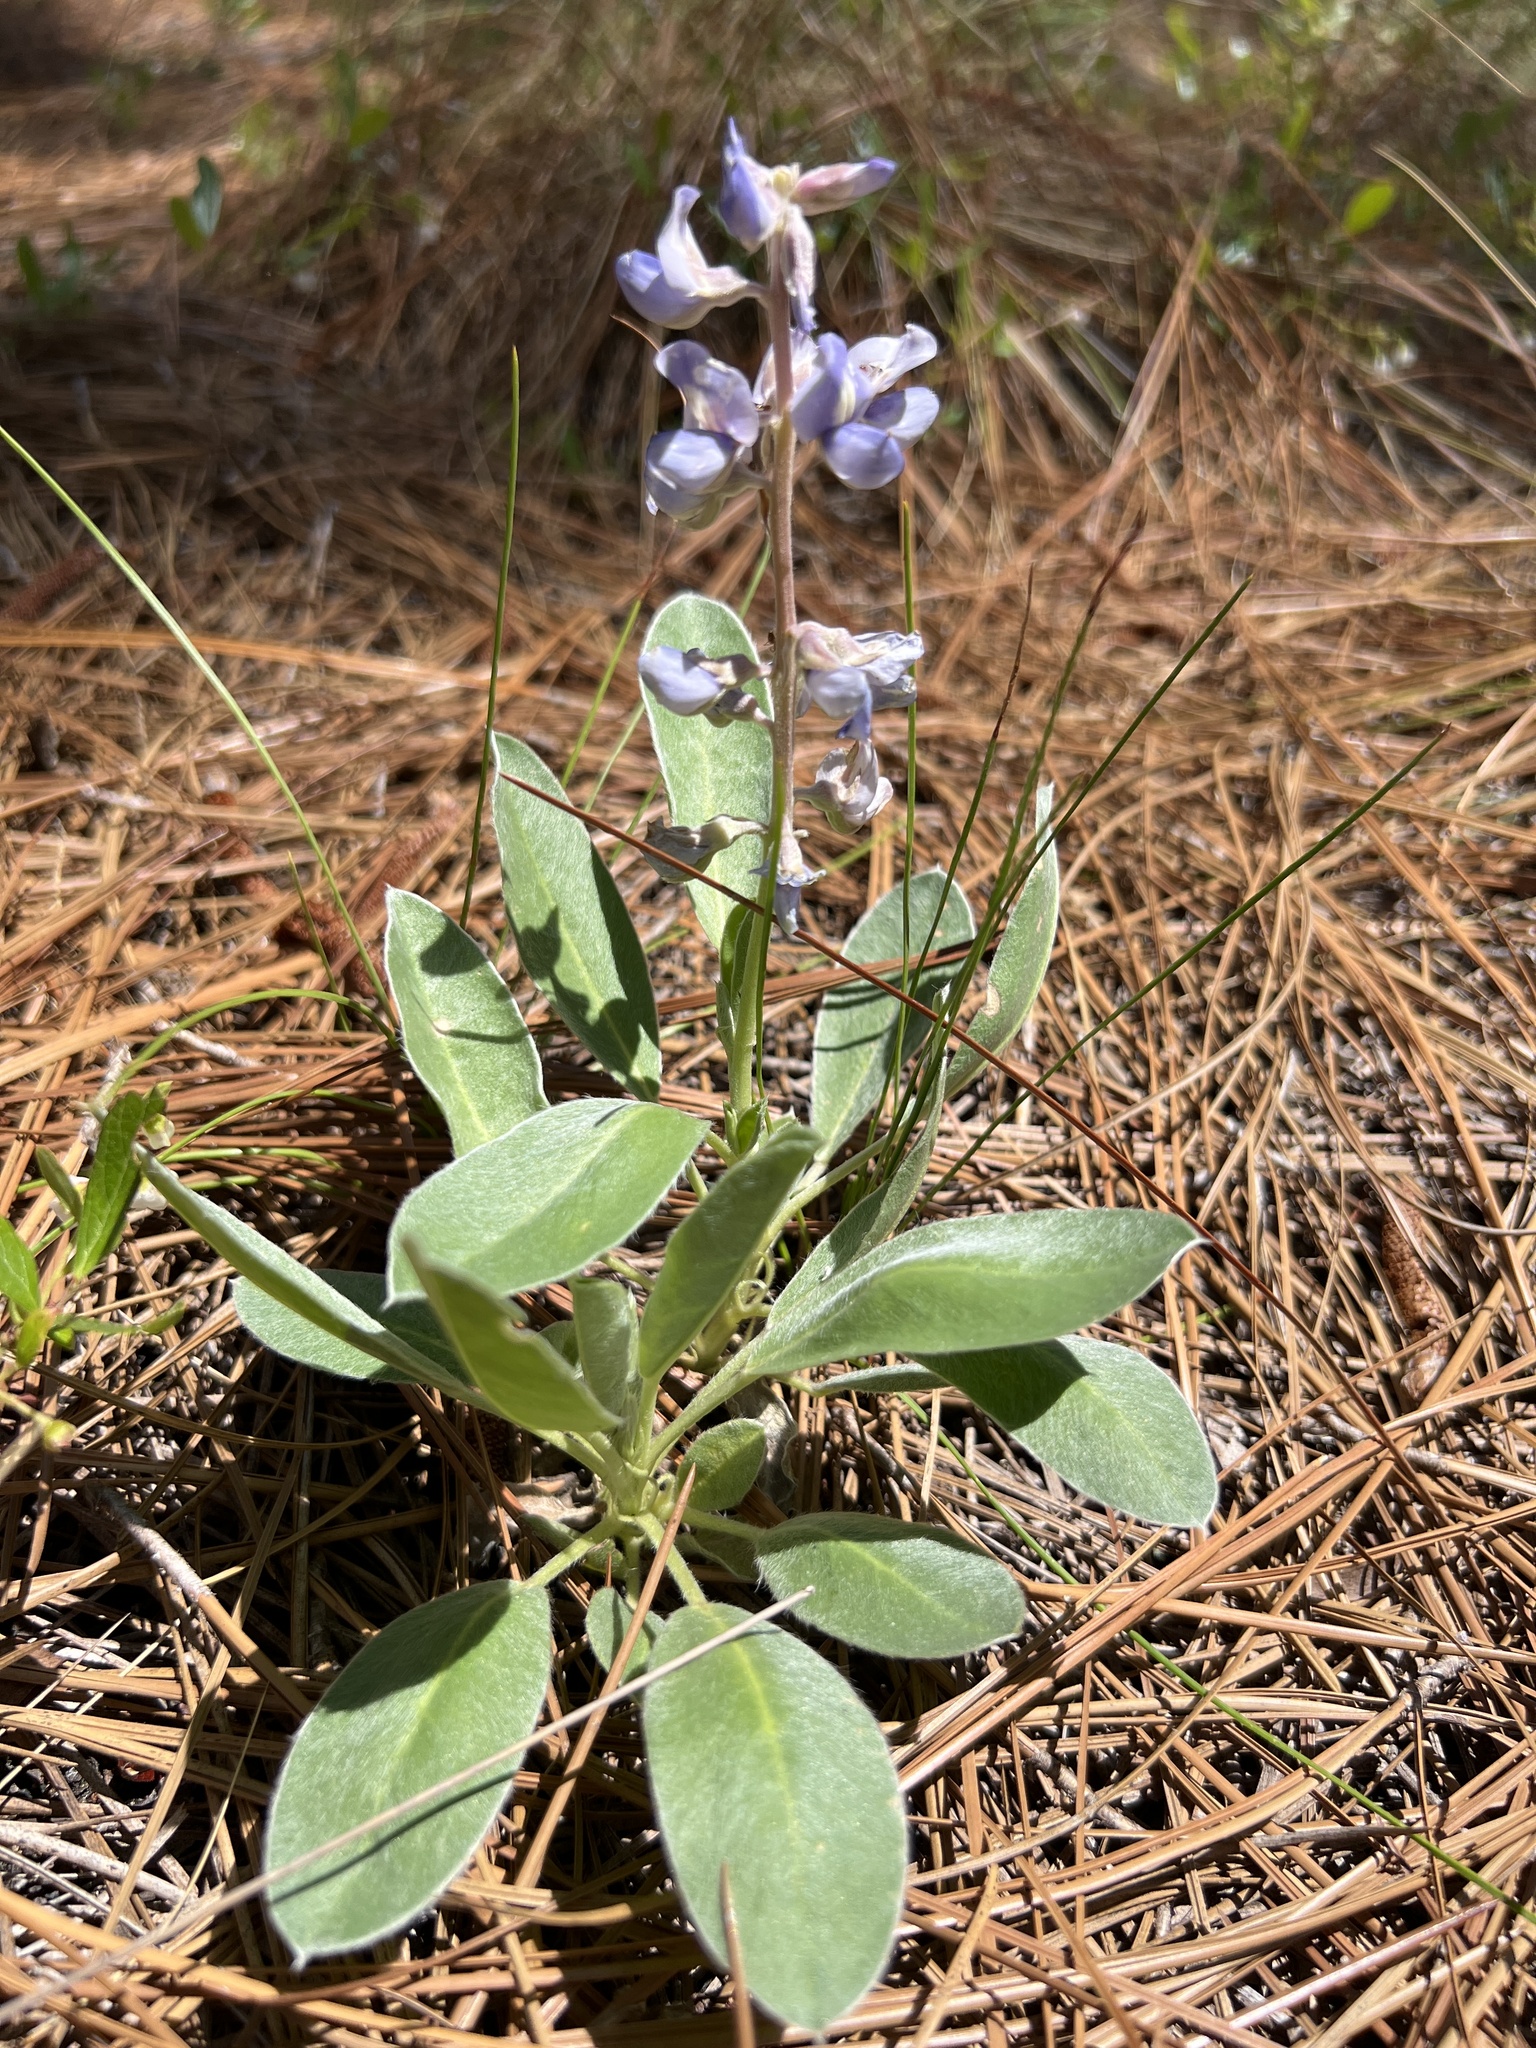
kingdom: Plantae
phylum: Tracheophyta
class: Magnoliopsida
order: Fabales
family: Fabaceae
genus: Lupinus
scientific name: Lupinus diffusus
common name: Oak ridge lupine
